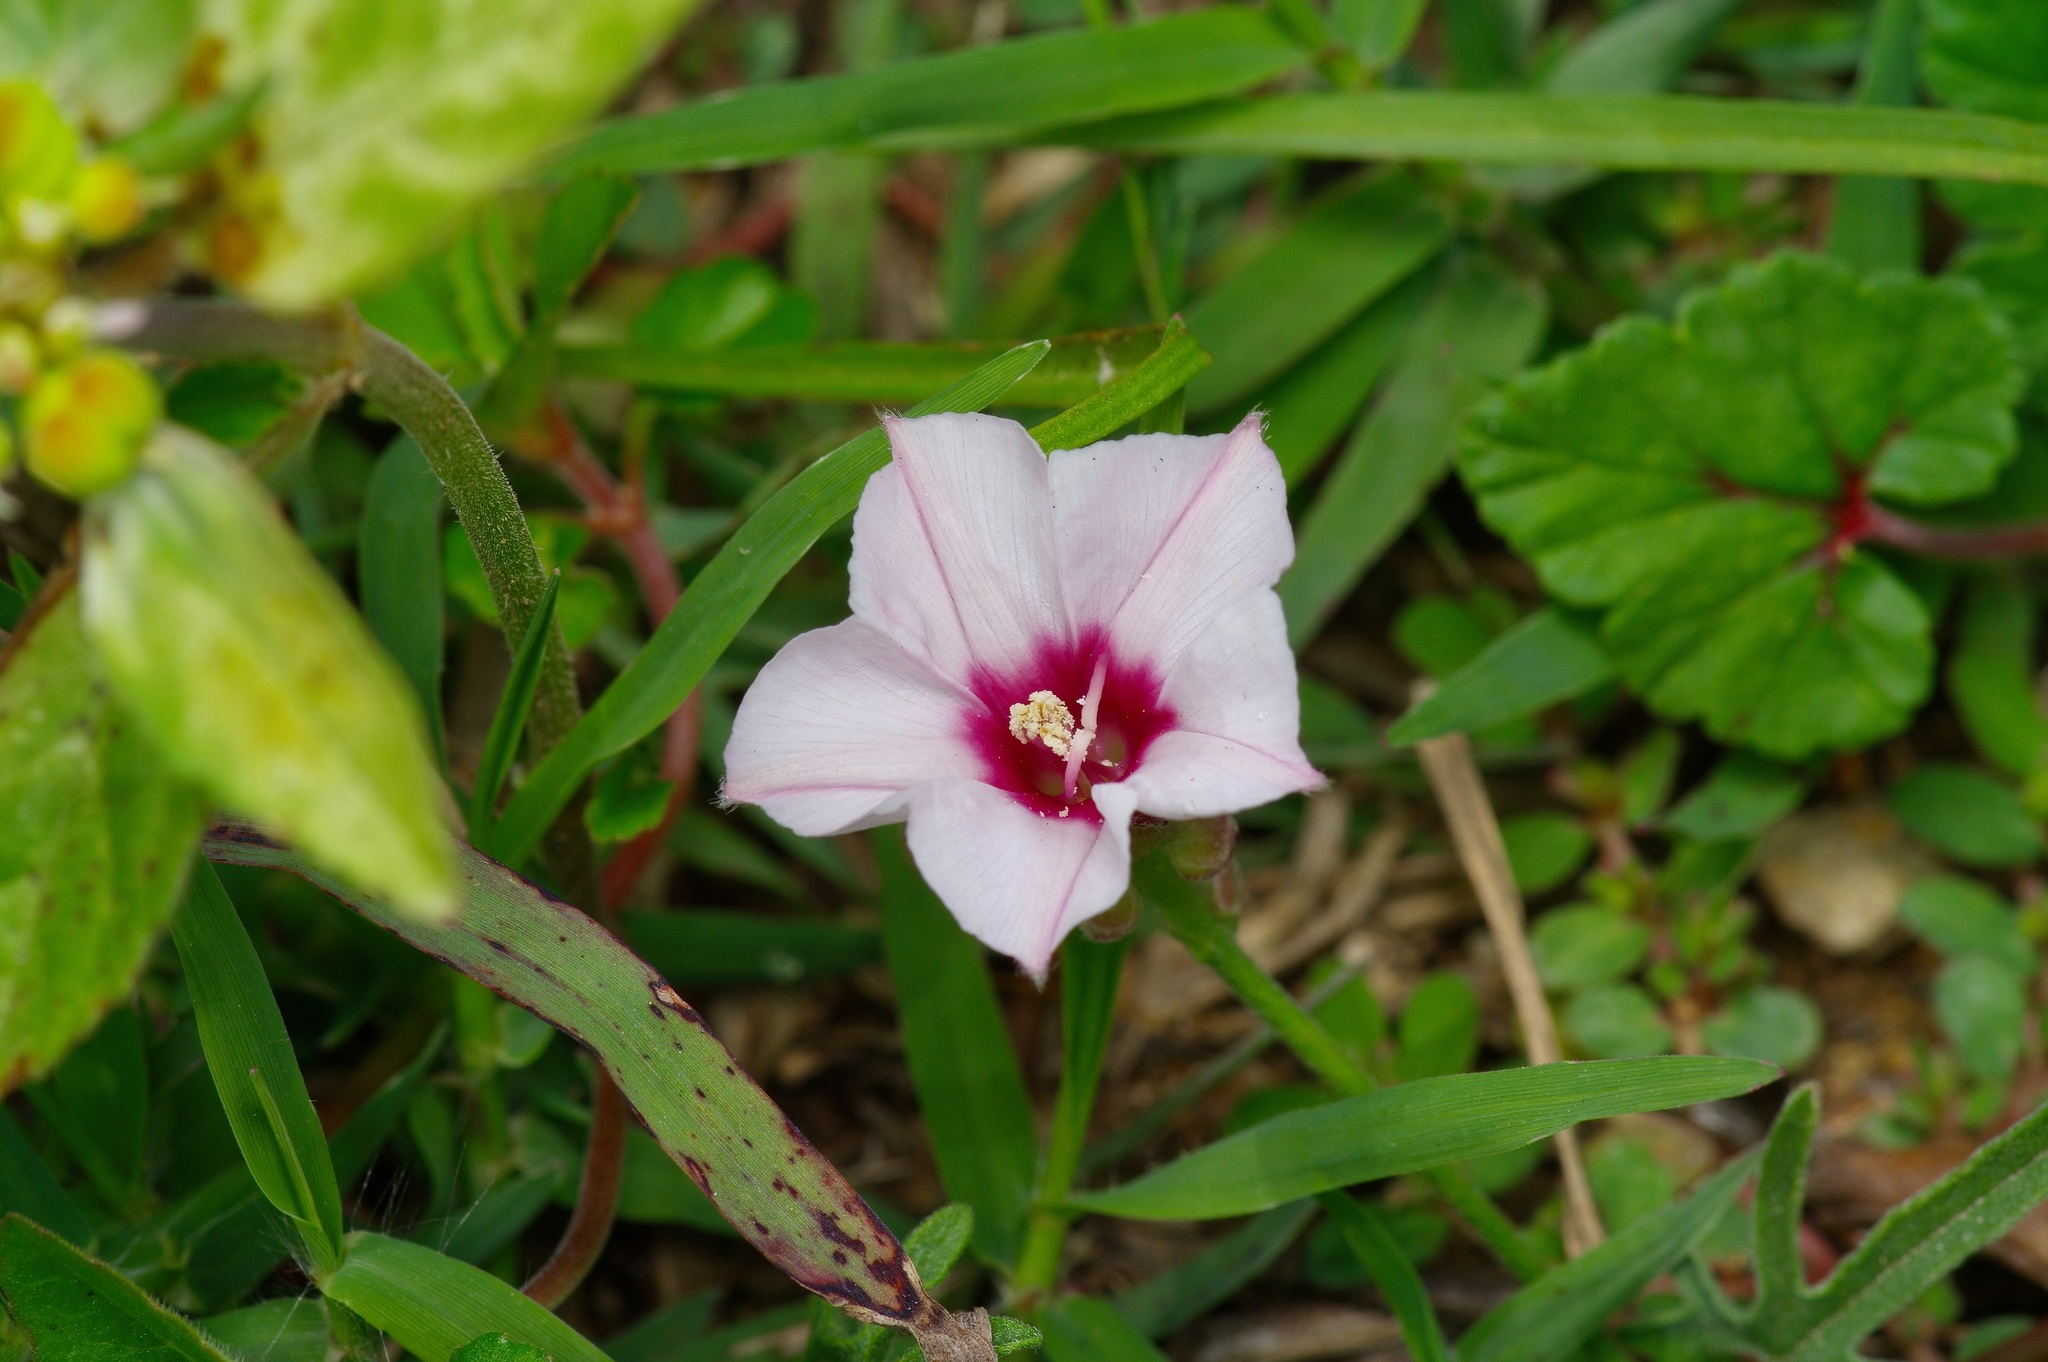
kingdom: Plantae
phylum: Tracheophyta
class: Magnoliopsida
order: Solanales
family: Convolvulaceae
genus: Convolvulus
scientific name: Convolvulus equitans
